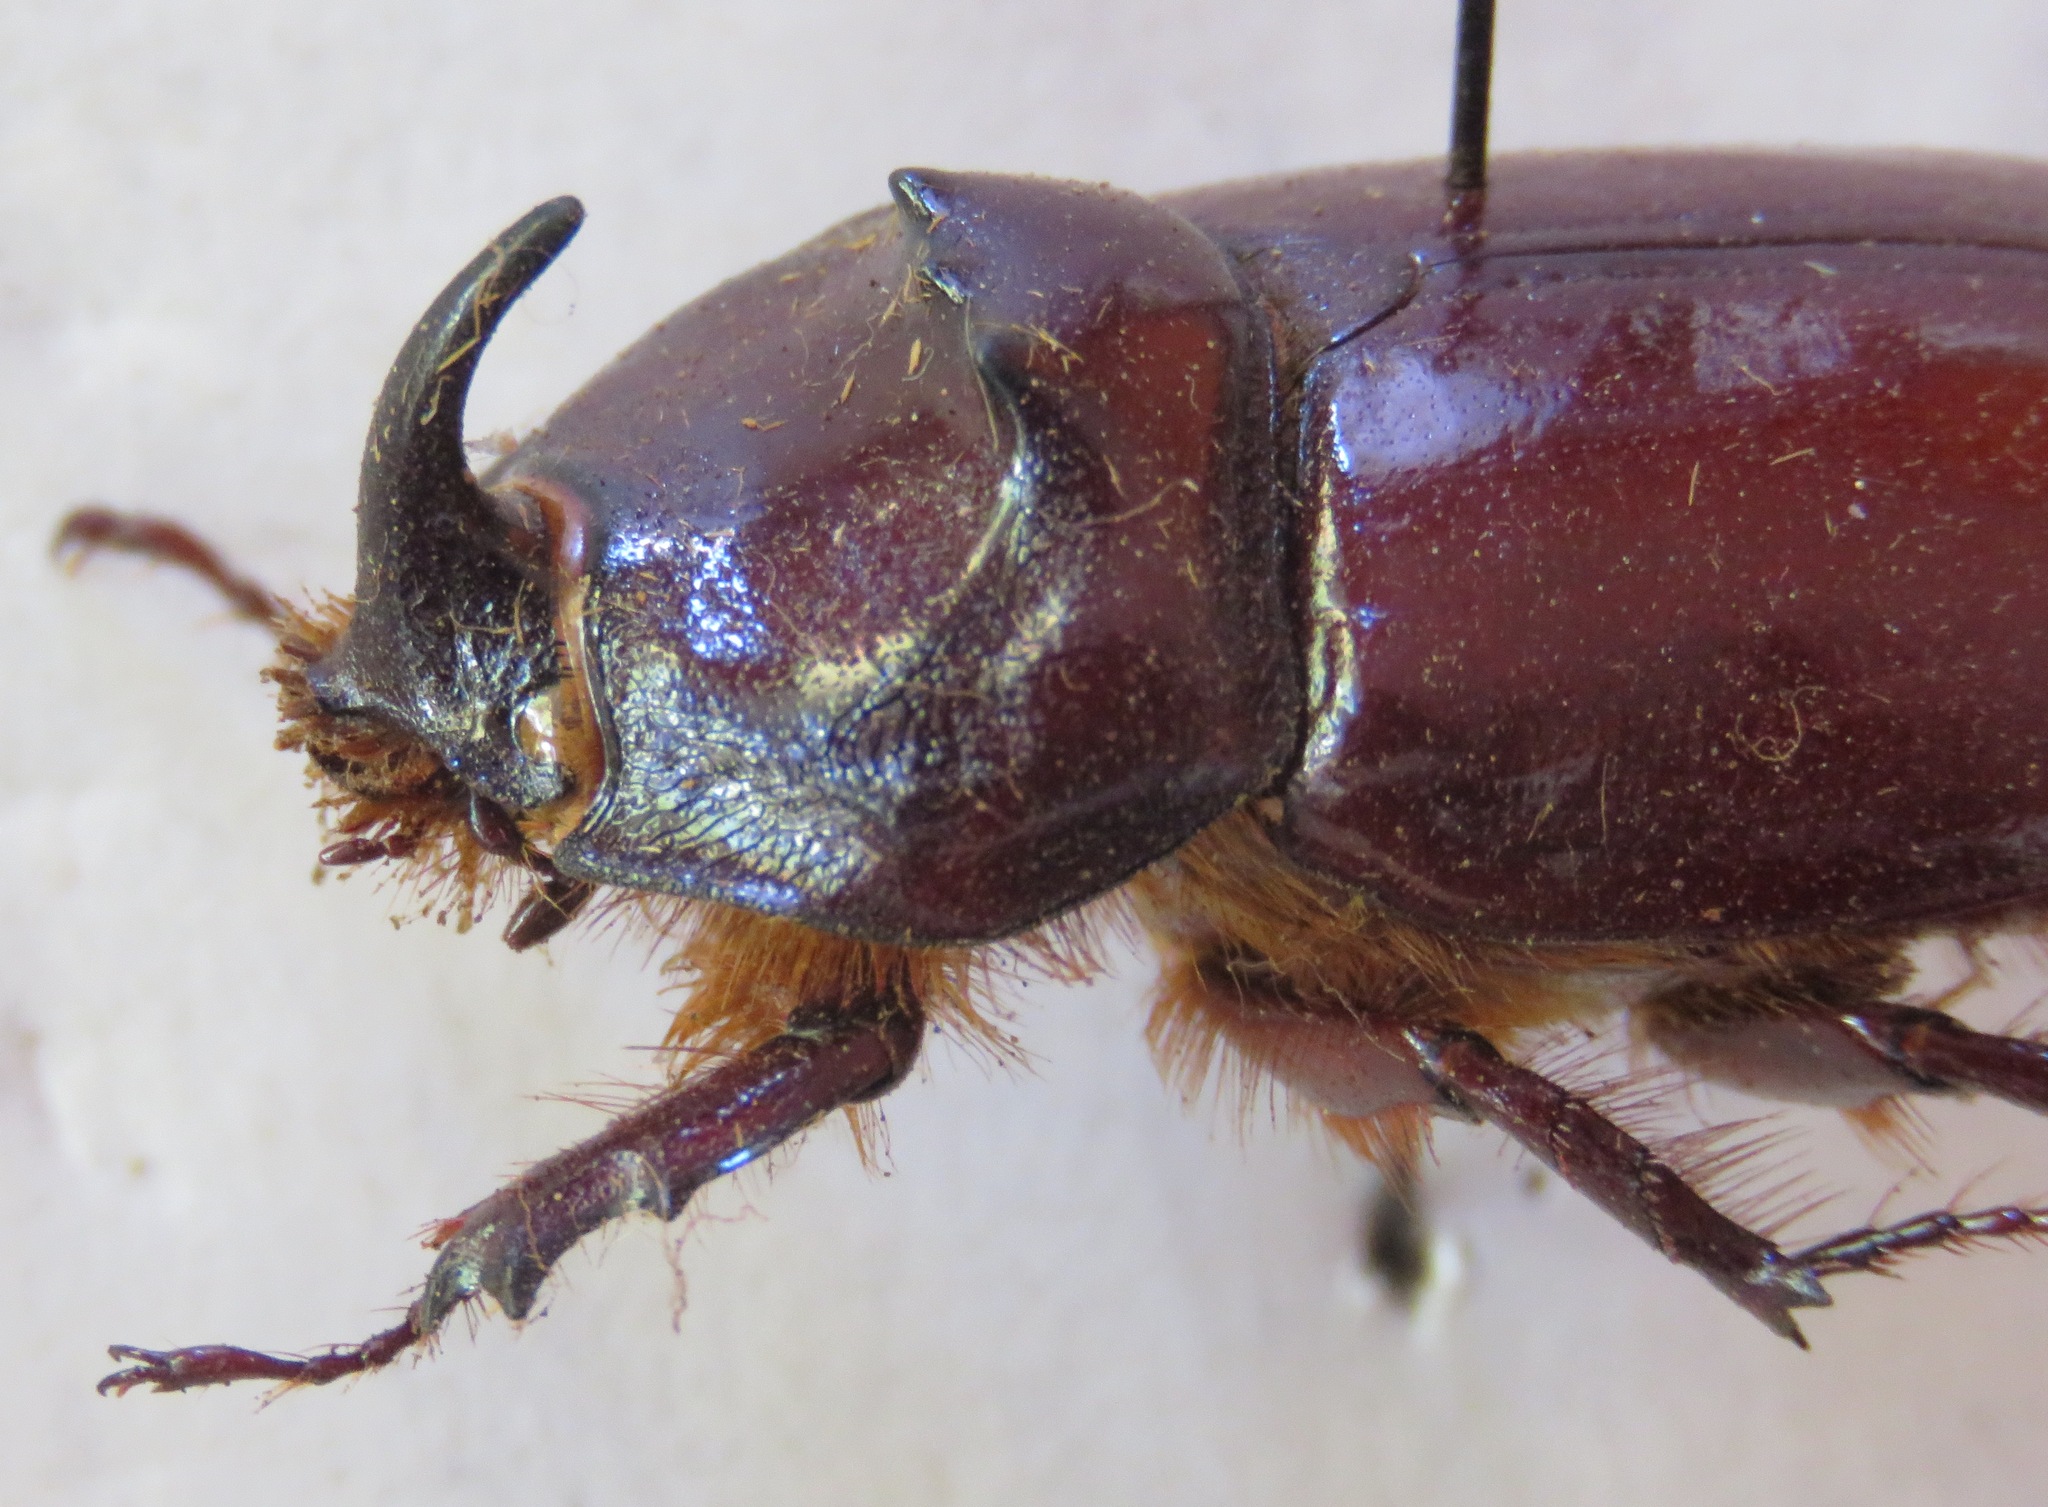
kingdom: Animalia
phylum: Arthropoda
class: Insecta
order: Coleoptera
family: Scarabaeidae
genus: Oryctes
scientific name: Oryctes nasicornis
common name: European rhinoceros beetle
